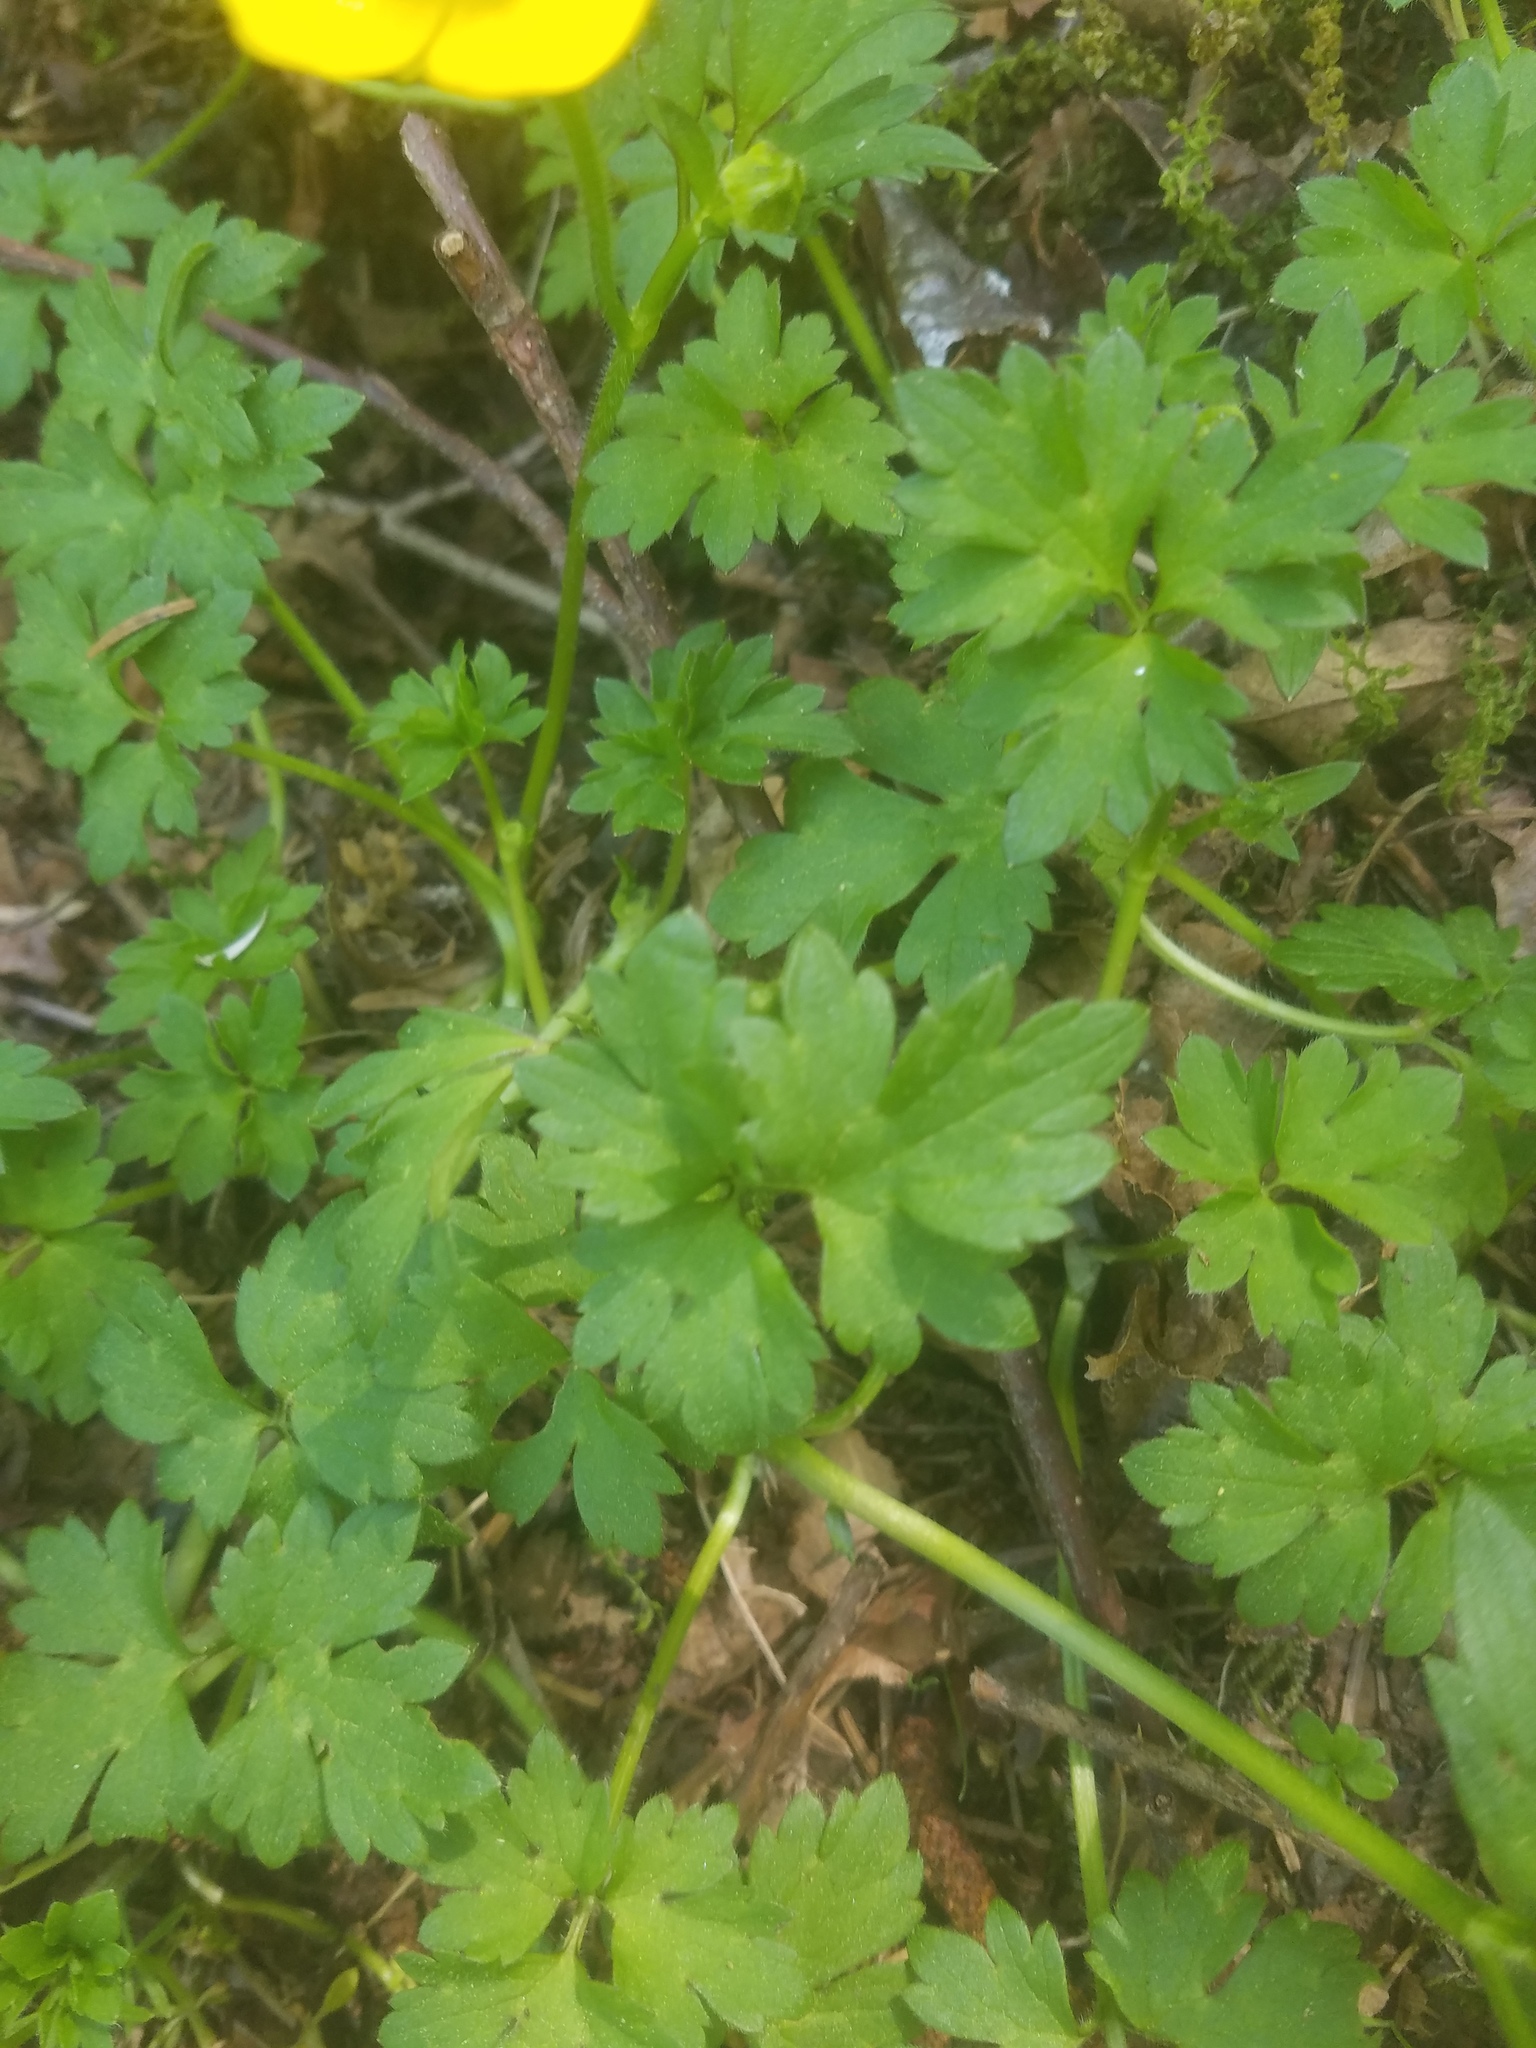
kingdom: Plantae
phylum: Tracheophyta
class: Magnoliopsida
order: Ranunculales
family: Ranunculaceae
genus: Ranunculus
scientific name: Ranunculus repens
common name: Creeping buttercup
